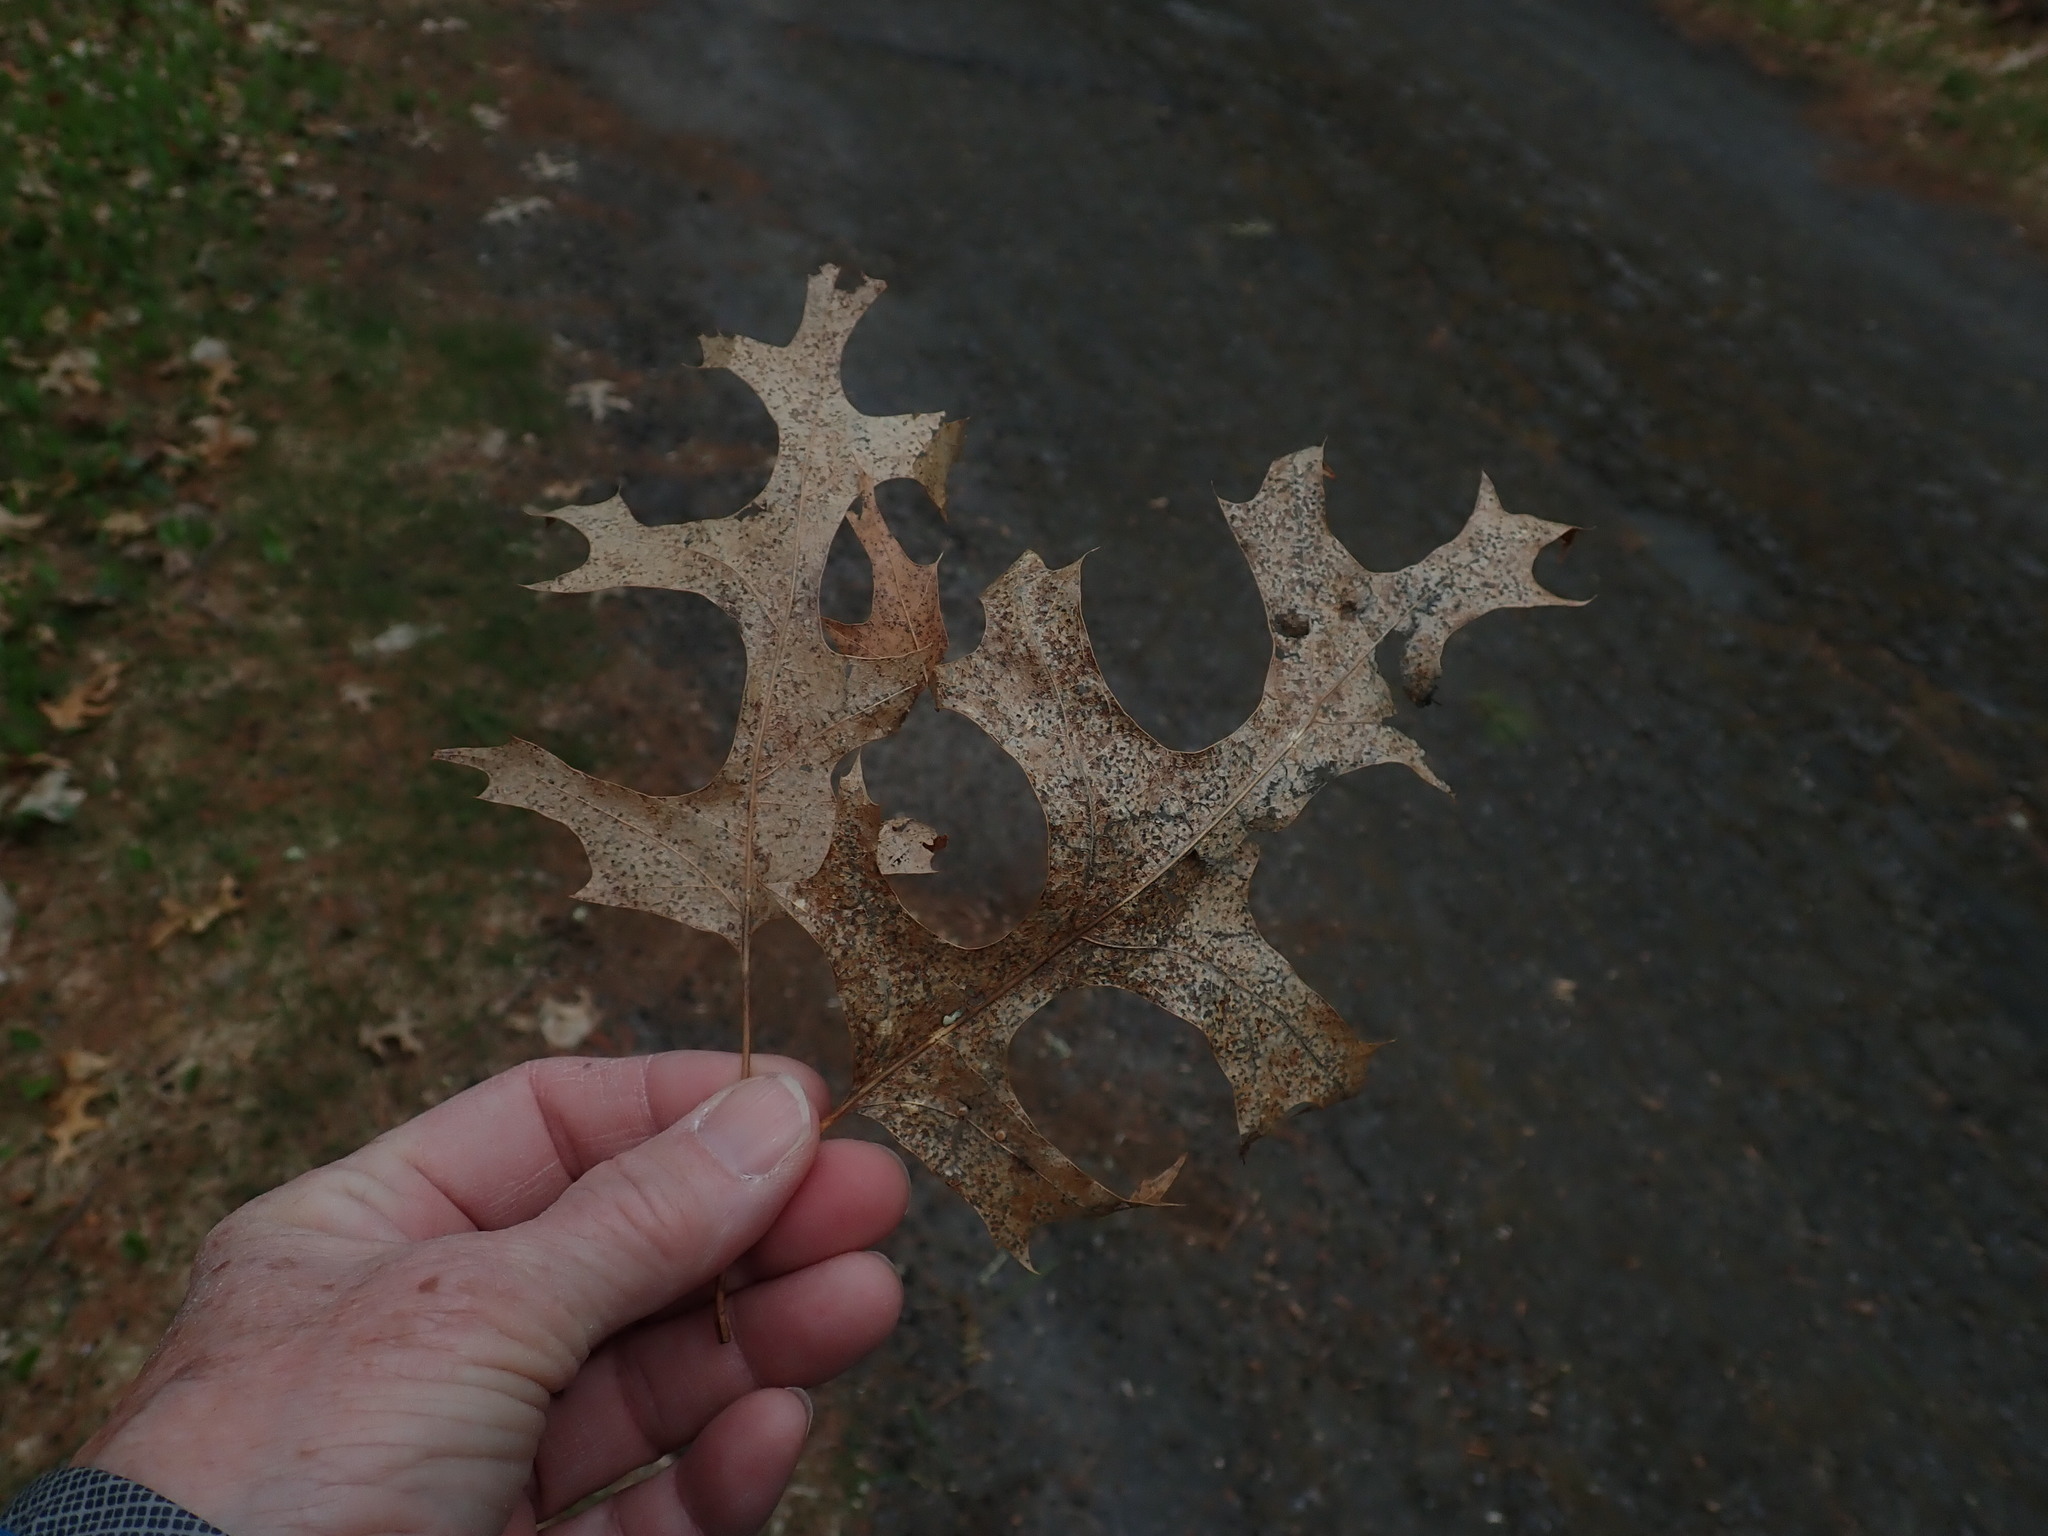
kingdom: Plantae
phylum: Tracheophyta
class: Magnoliopsida
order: Fagales
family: Fagaceae
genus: Quercus
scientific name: Quercus coccinea
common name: Scarlet oak
